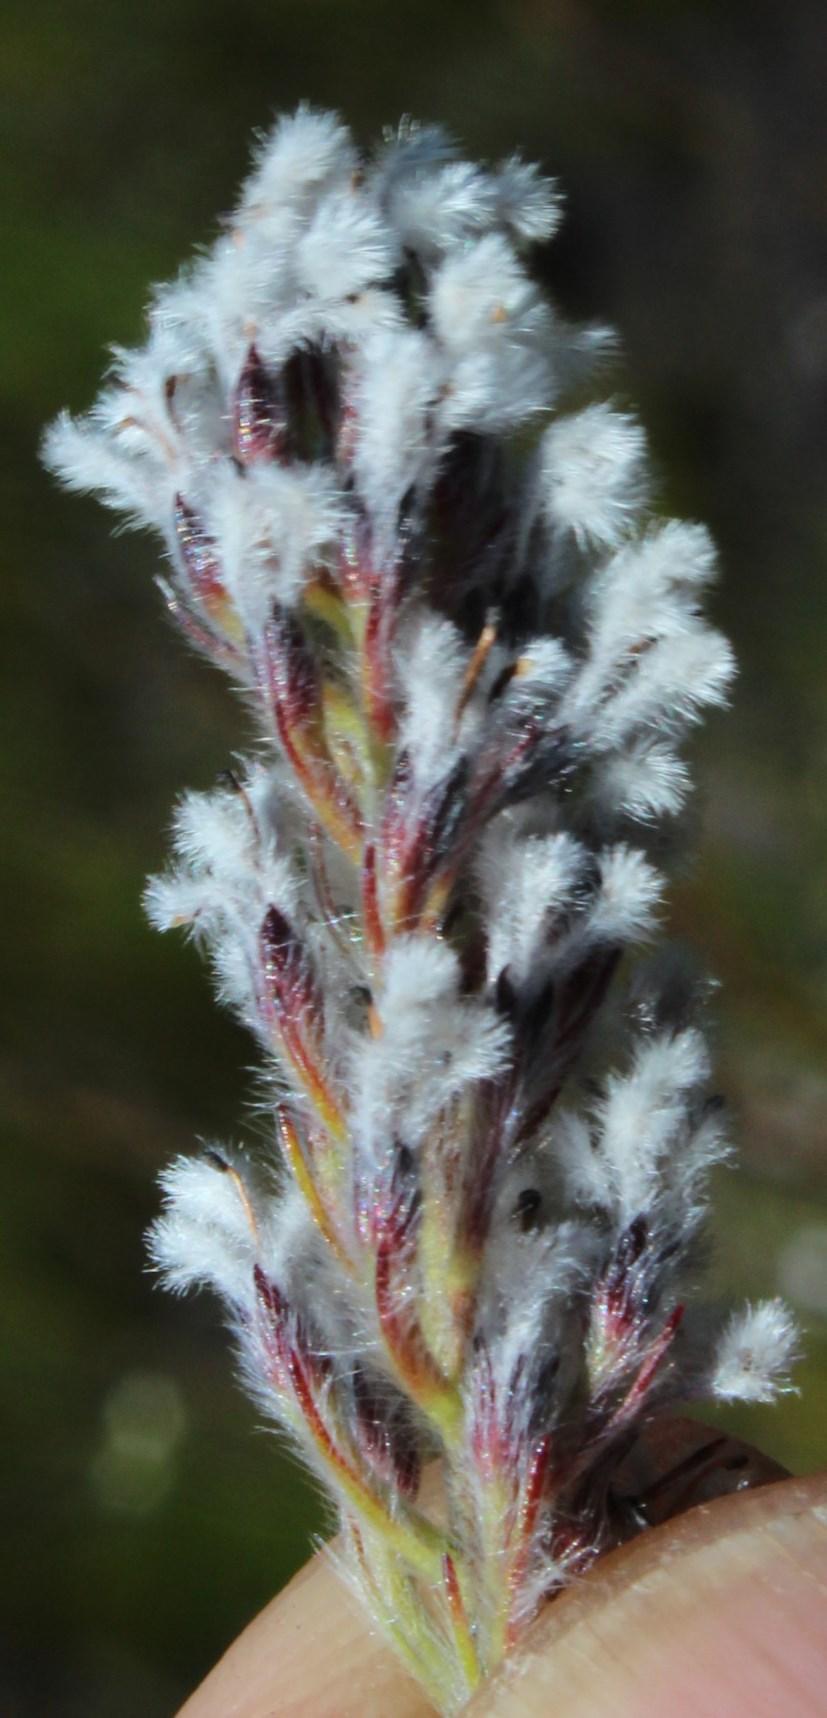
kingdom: Plantae
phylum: Tracheophyta
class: Magnoliopsida
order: Proteales
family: Proteaceae
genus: Spatalla
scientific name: Spatalla mollis
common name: Woolly spoon
